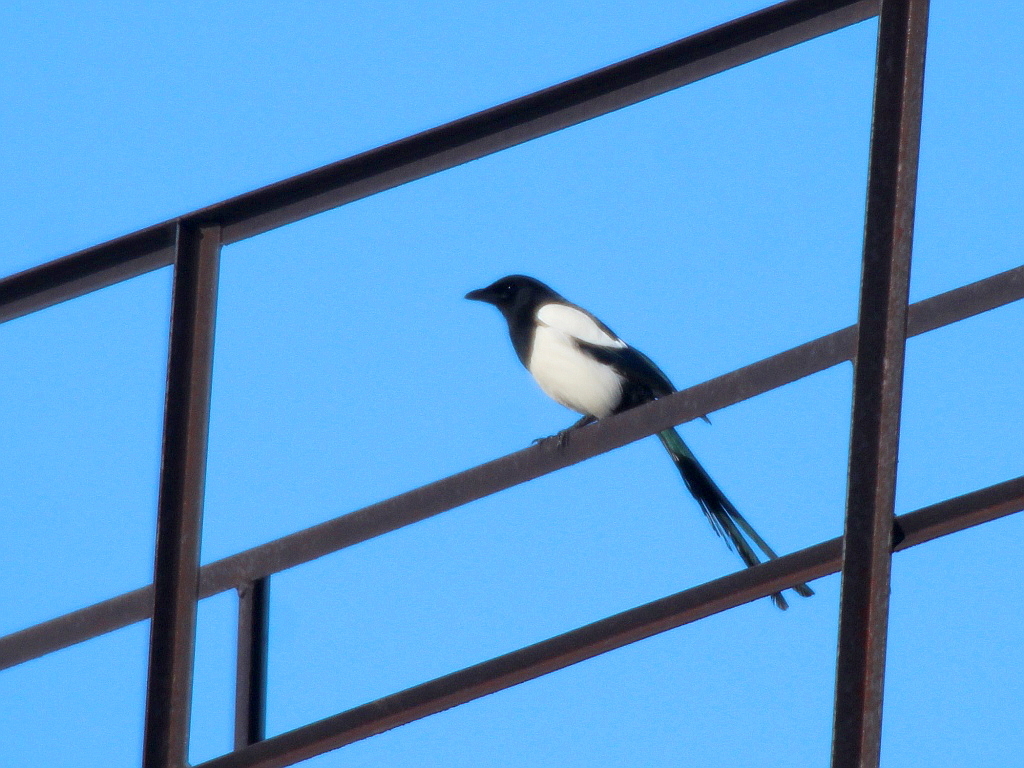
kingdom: Animalia
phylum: Chordata
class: Aves
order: Passeriformes
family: Corvidae
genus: Pica
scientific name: Pica pica
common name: Eurasian magpie
